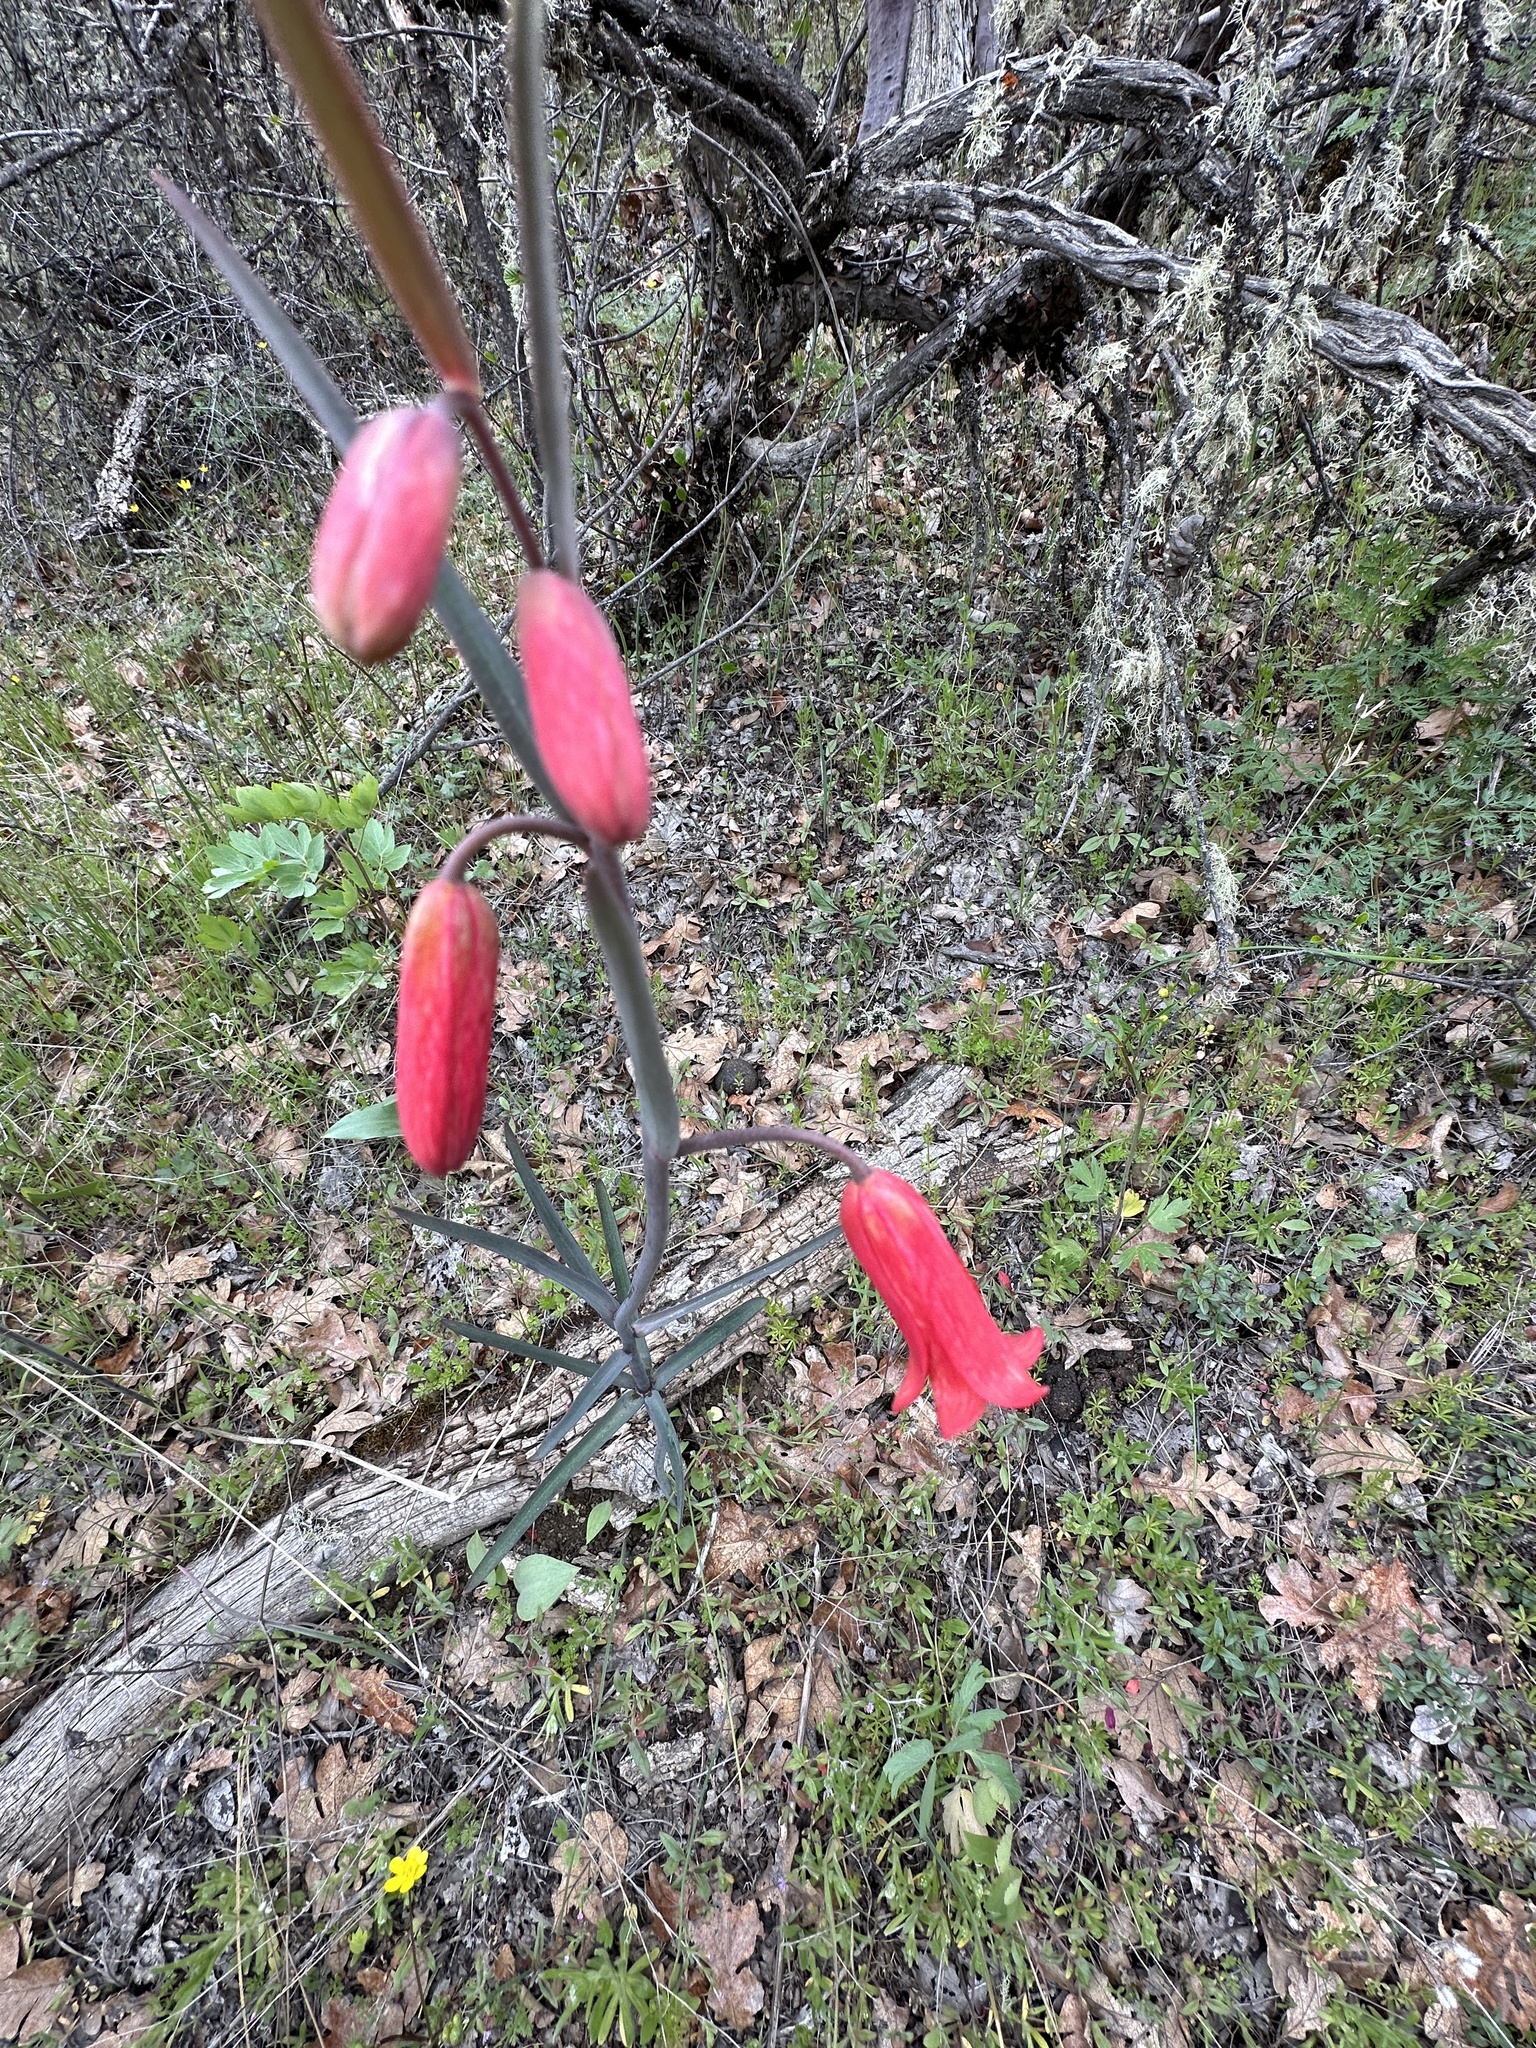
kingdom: Plantae
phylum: Tracheophyta
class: Liliopsida
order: Liliales
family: Liliaceae
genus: Fritillaria
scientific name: Fritillaria recurva
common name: Scarlet fritillary
